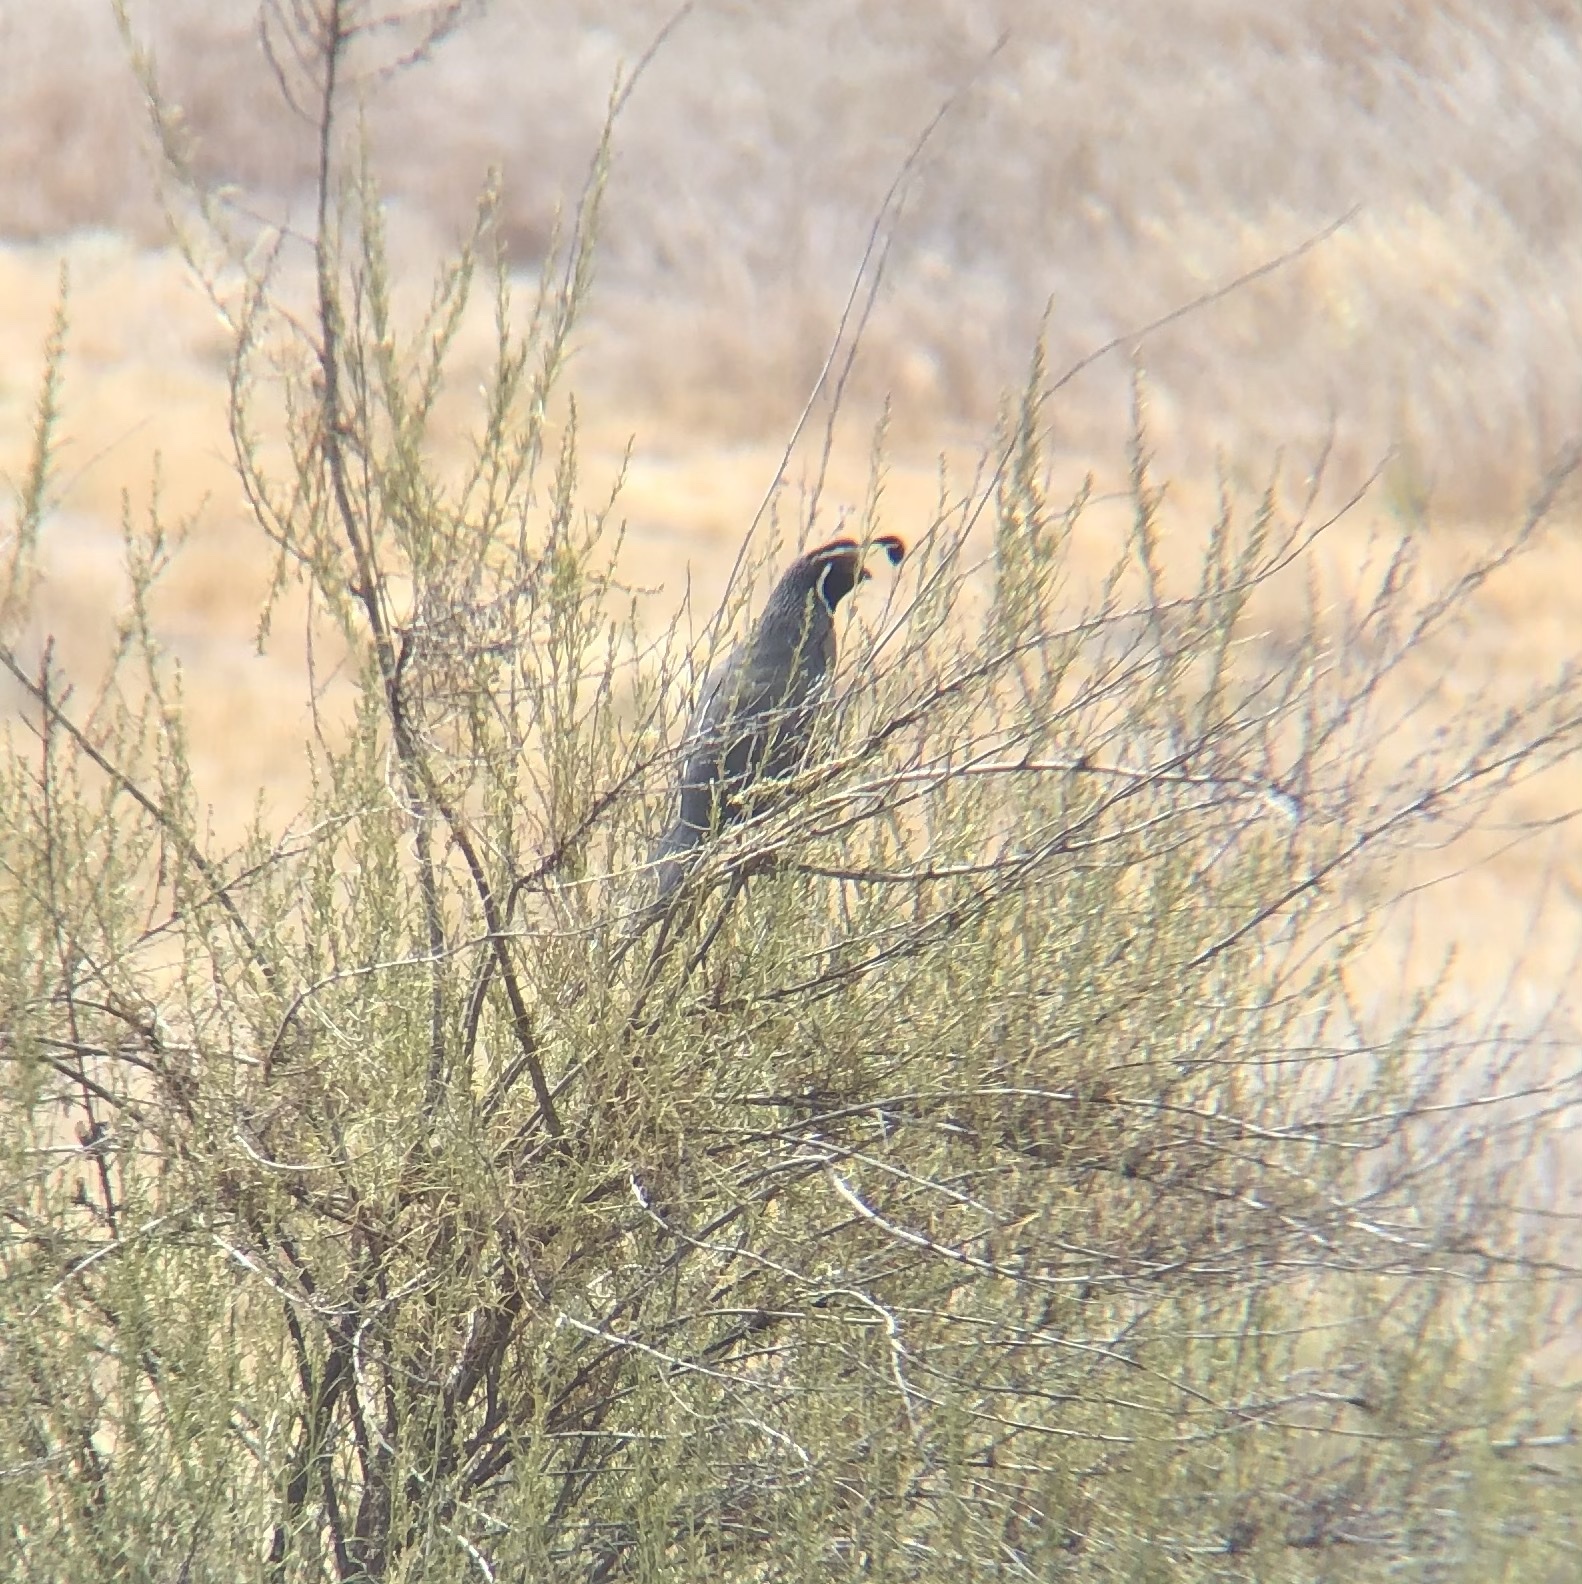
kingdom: Animalia
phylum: Chordata
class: Aves
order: Galliformes
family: Odontophoridae
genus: Callipepla
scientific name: Callipepla californica
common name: California quail
